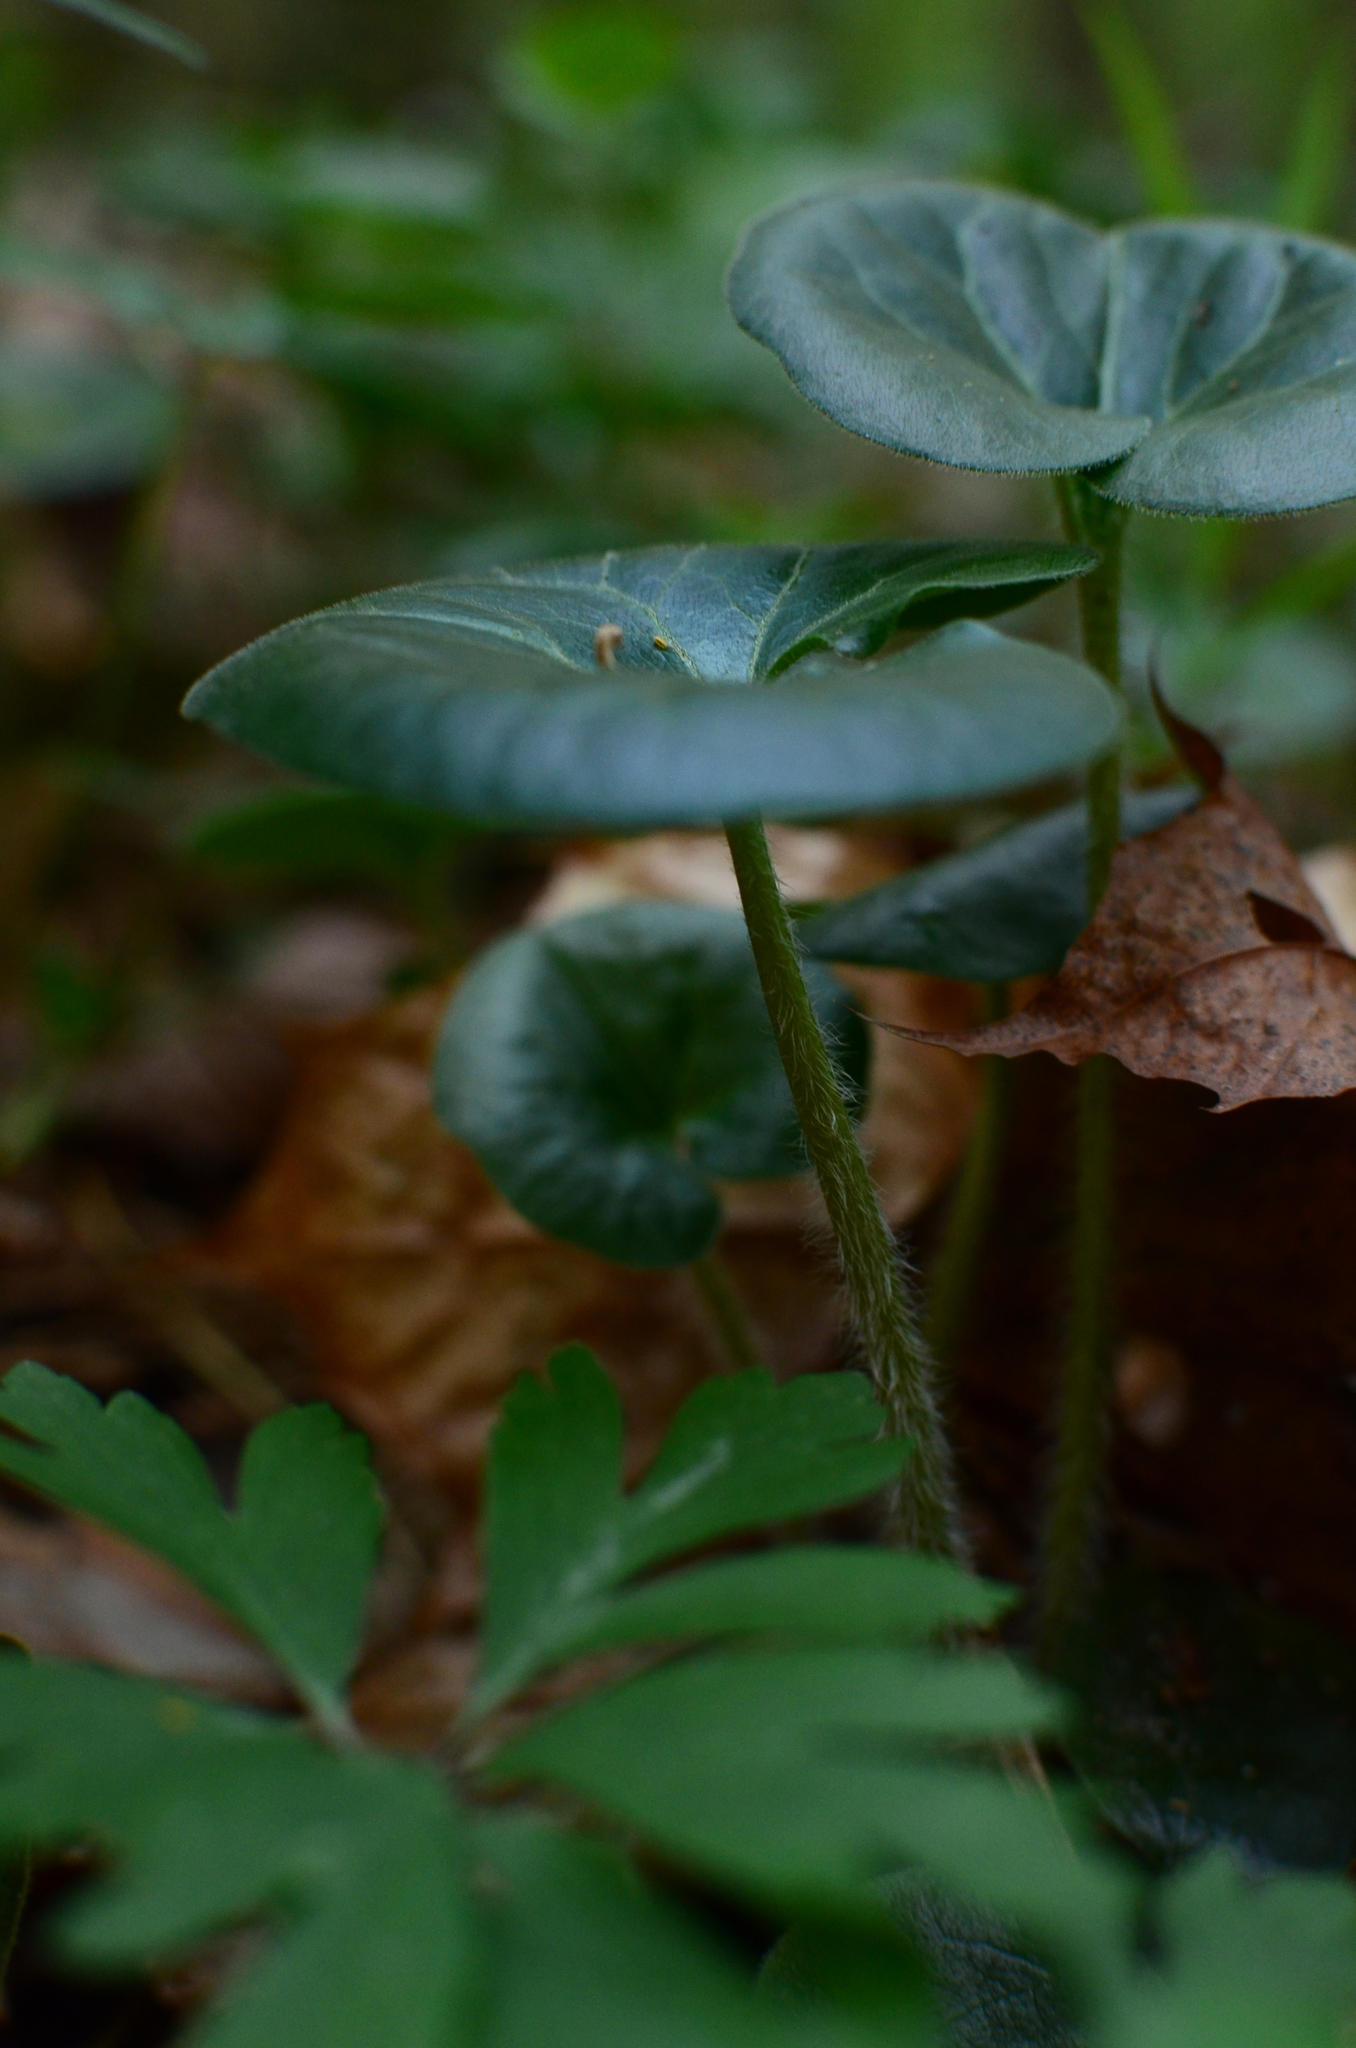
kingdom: Plantae
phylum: Tracheophyta
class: Magnoliopsida
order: Piperales
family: Aristolochiaceae
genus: Asarum
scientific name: Asarum europaeum
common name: Asarabacca
